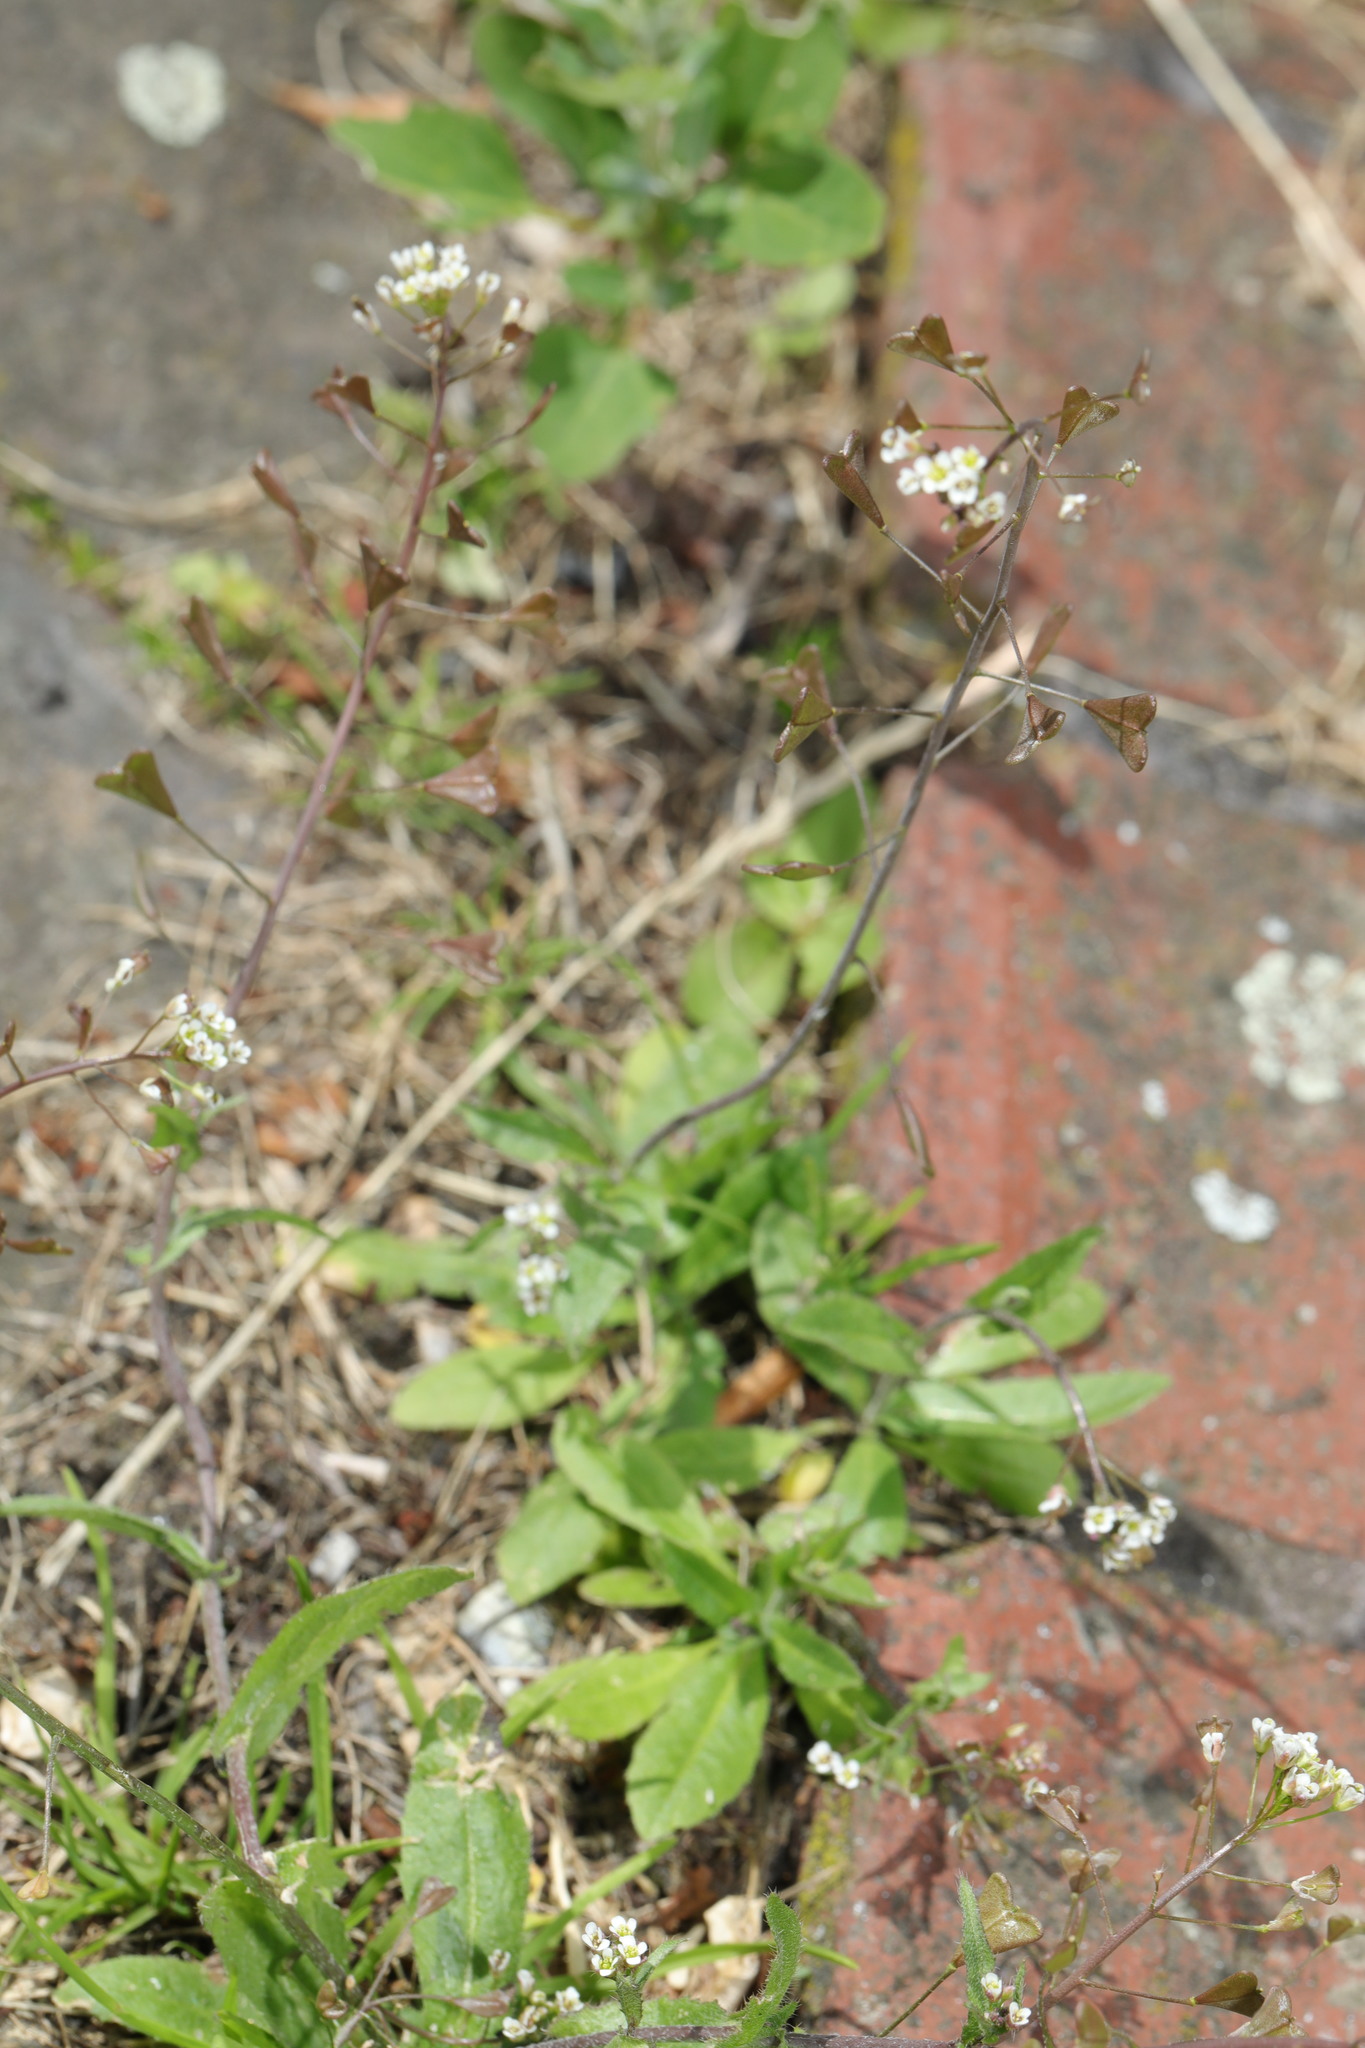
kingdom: Plantae
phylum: Tracheophyta
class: Magnoliopsida
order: Brassicales
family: Brassicaceae
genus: Capsella
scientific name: Capsella bursa-pastoris
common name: Shepherd's purse
